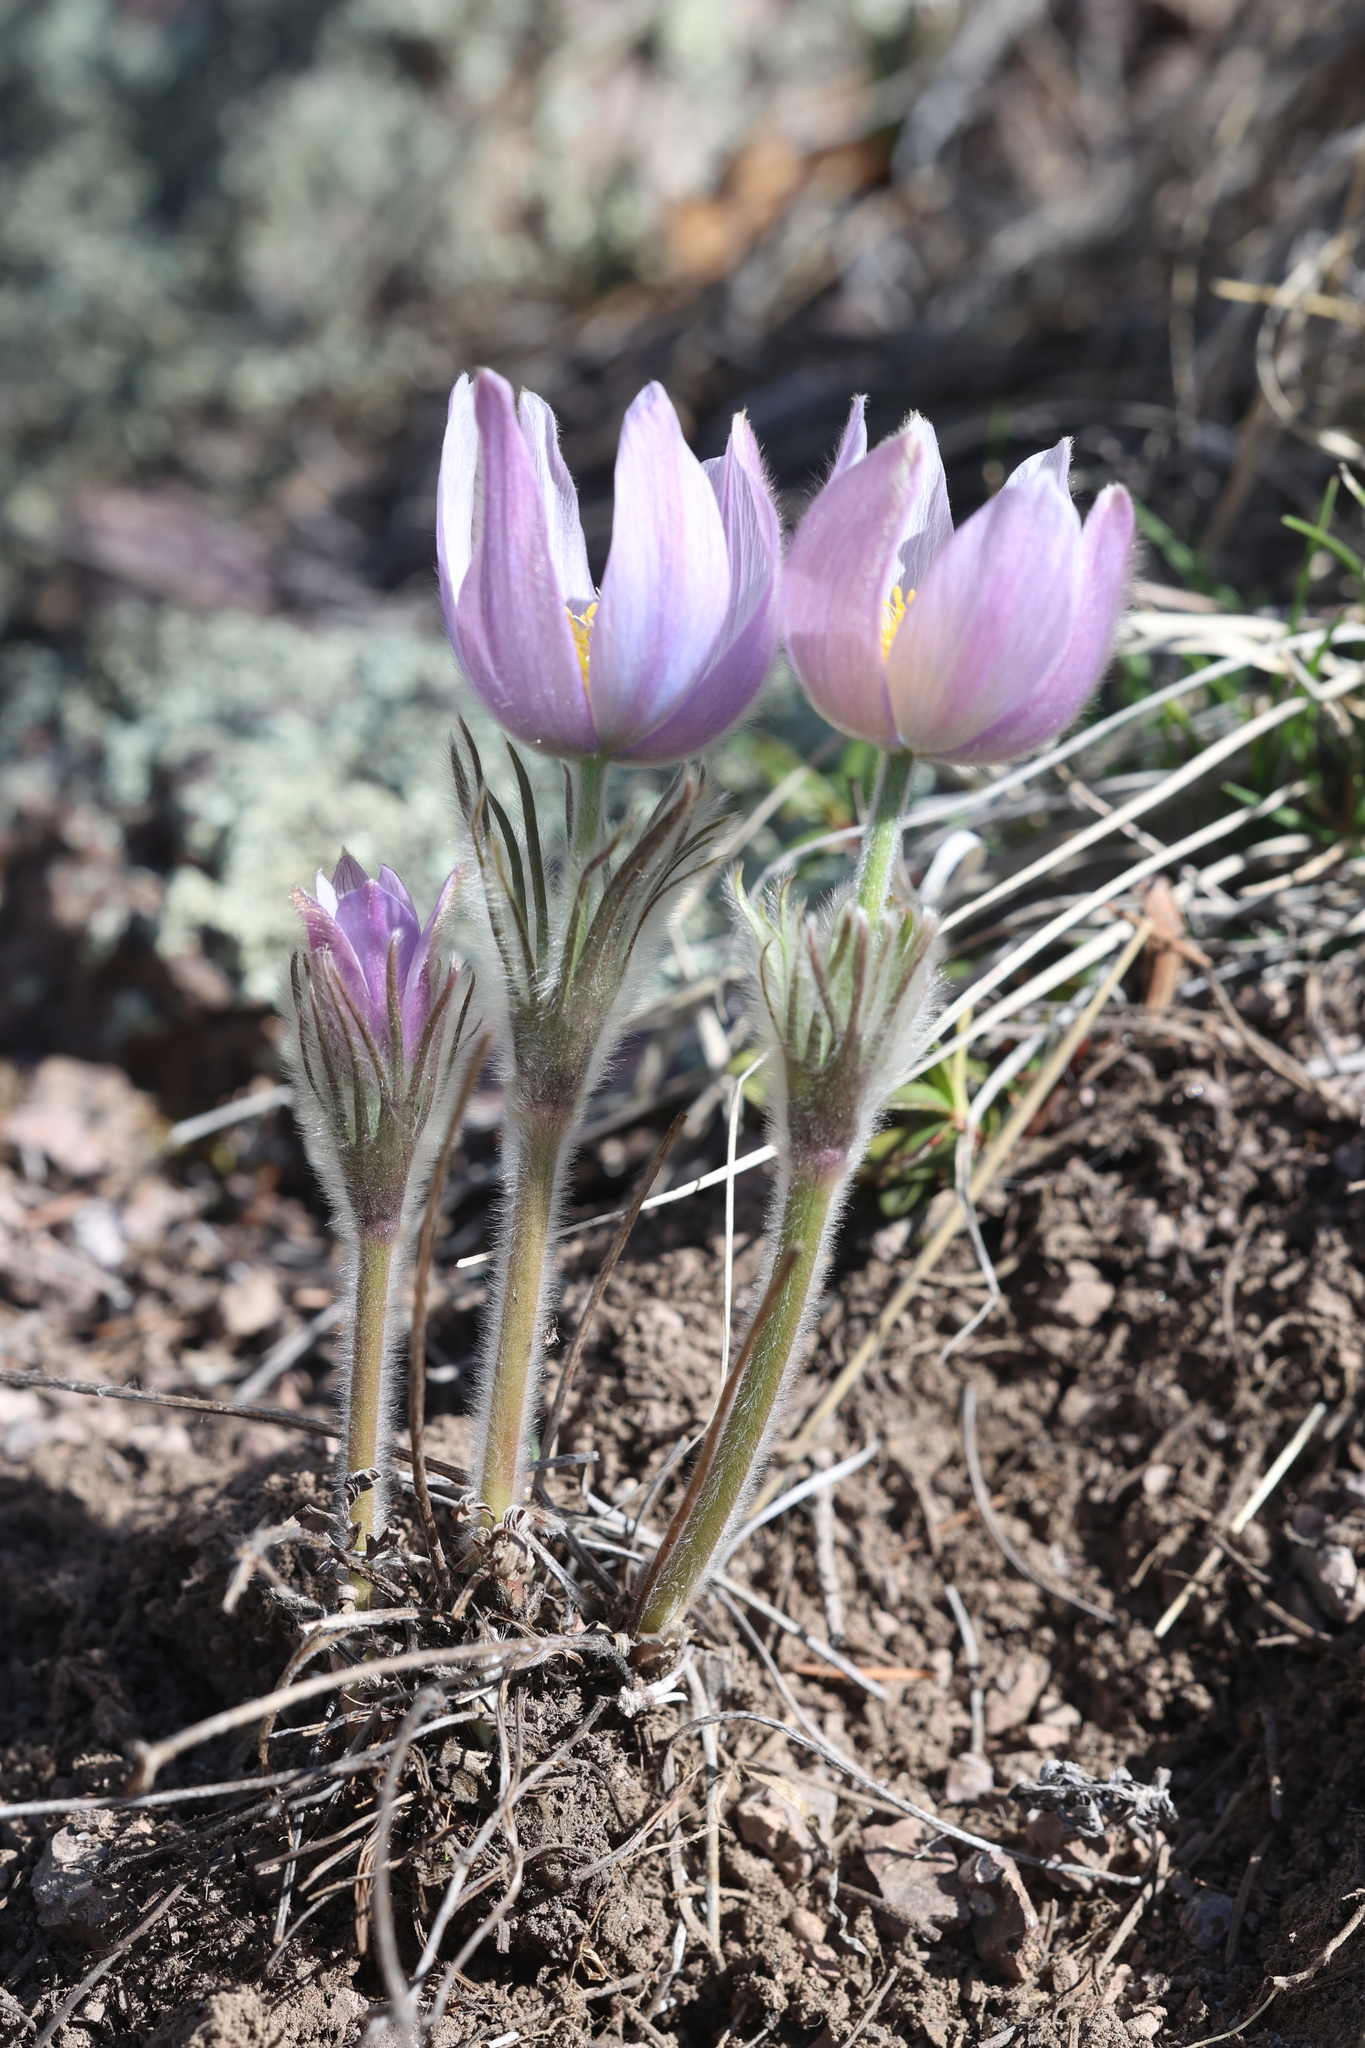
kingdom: Plantae
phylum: Tracheophyta
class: Magnoliopsida
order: Ranunculales
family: Ranunculaceae
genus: Pulsatilla
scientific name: Pulsatilla nuttalliana
